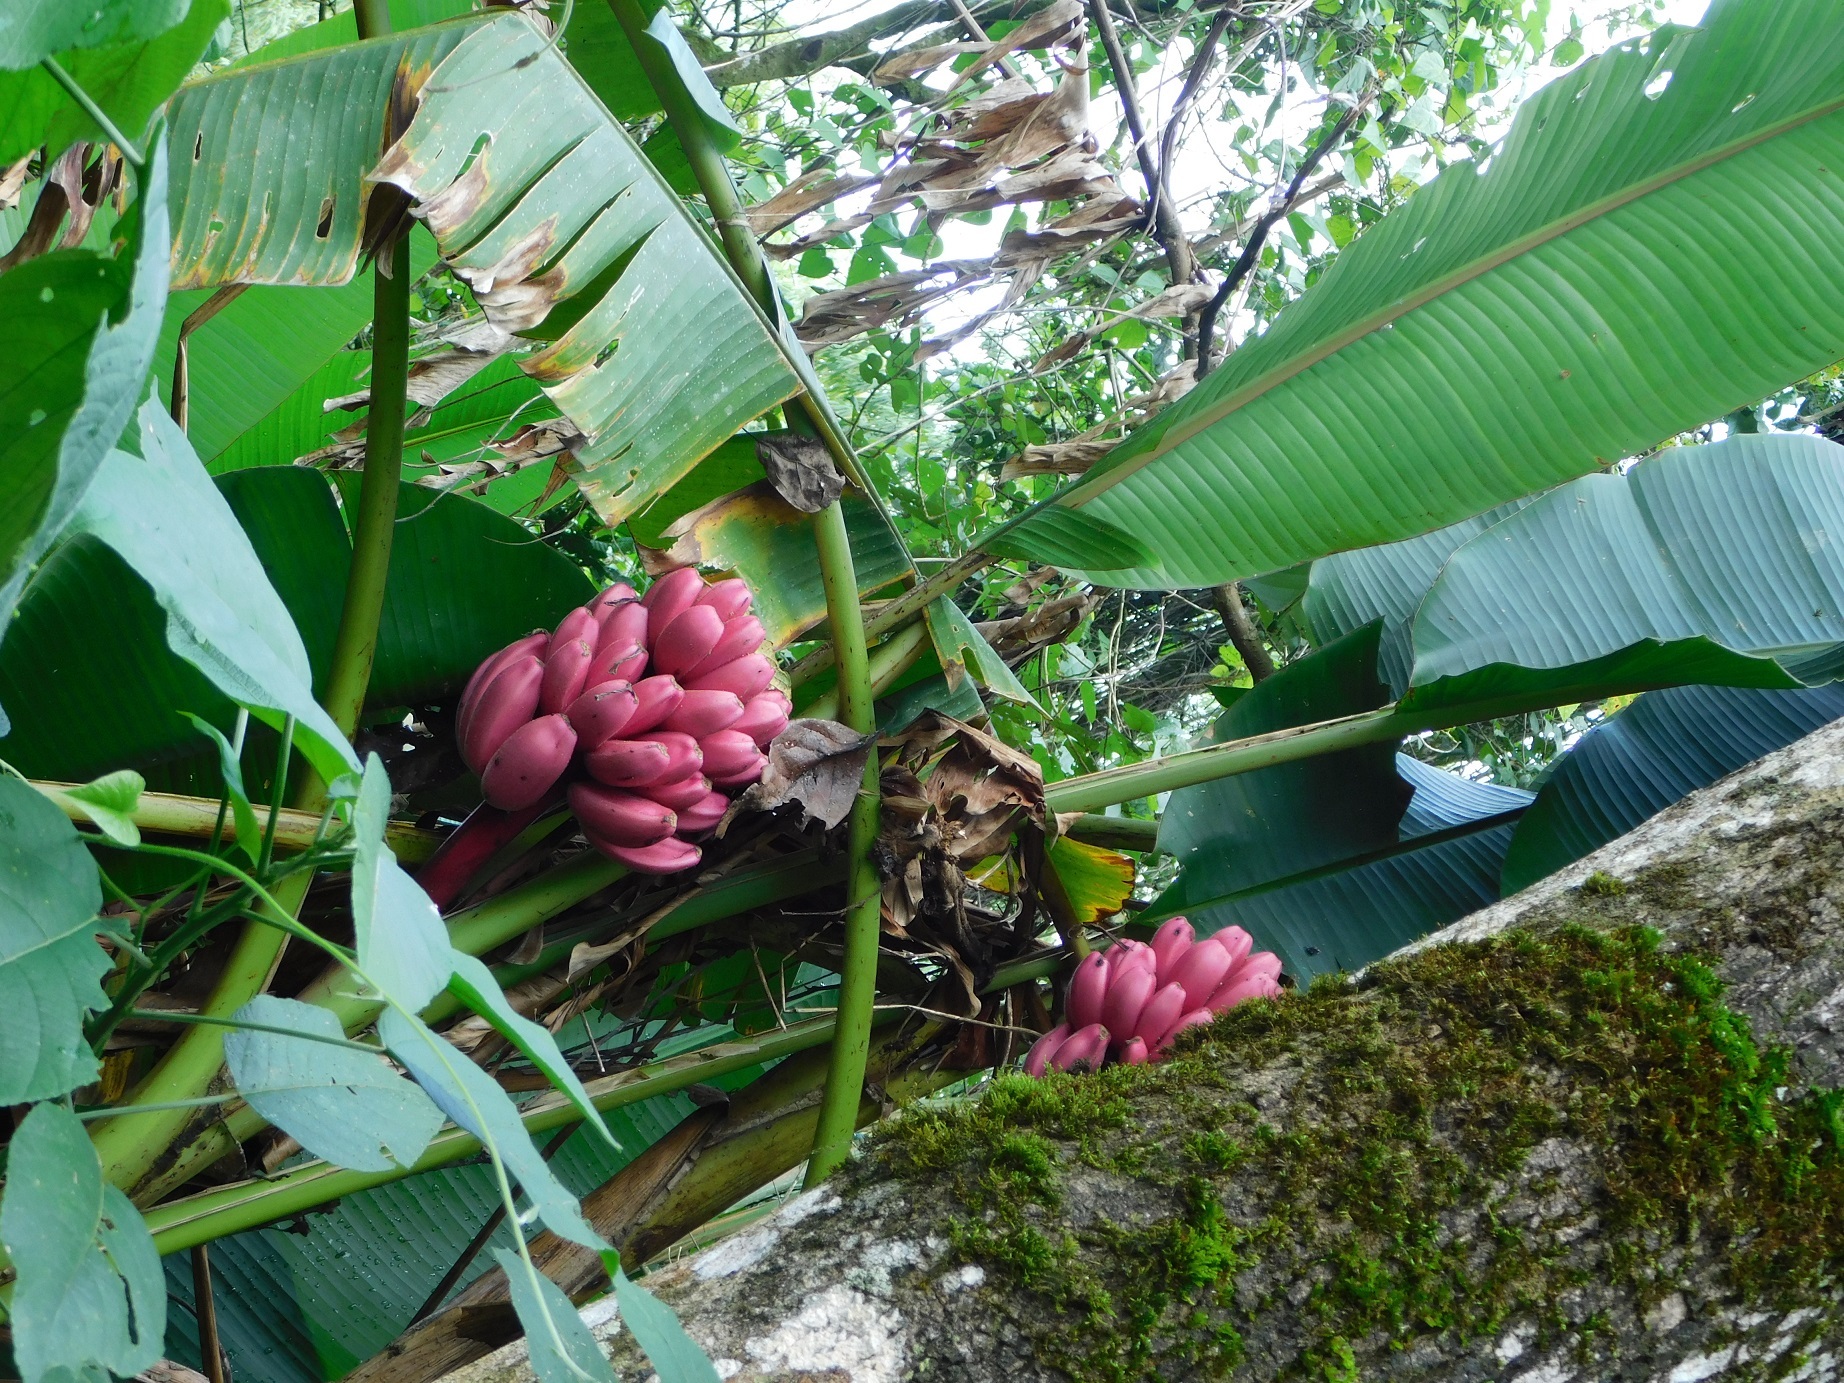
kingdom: Plantae
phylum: Tracheophyta
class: Liliopsida
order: Zingiberales
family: Musaceae
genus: Musa
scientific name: Musa velutina
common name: Pink velvet banana
